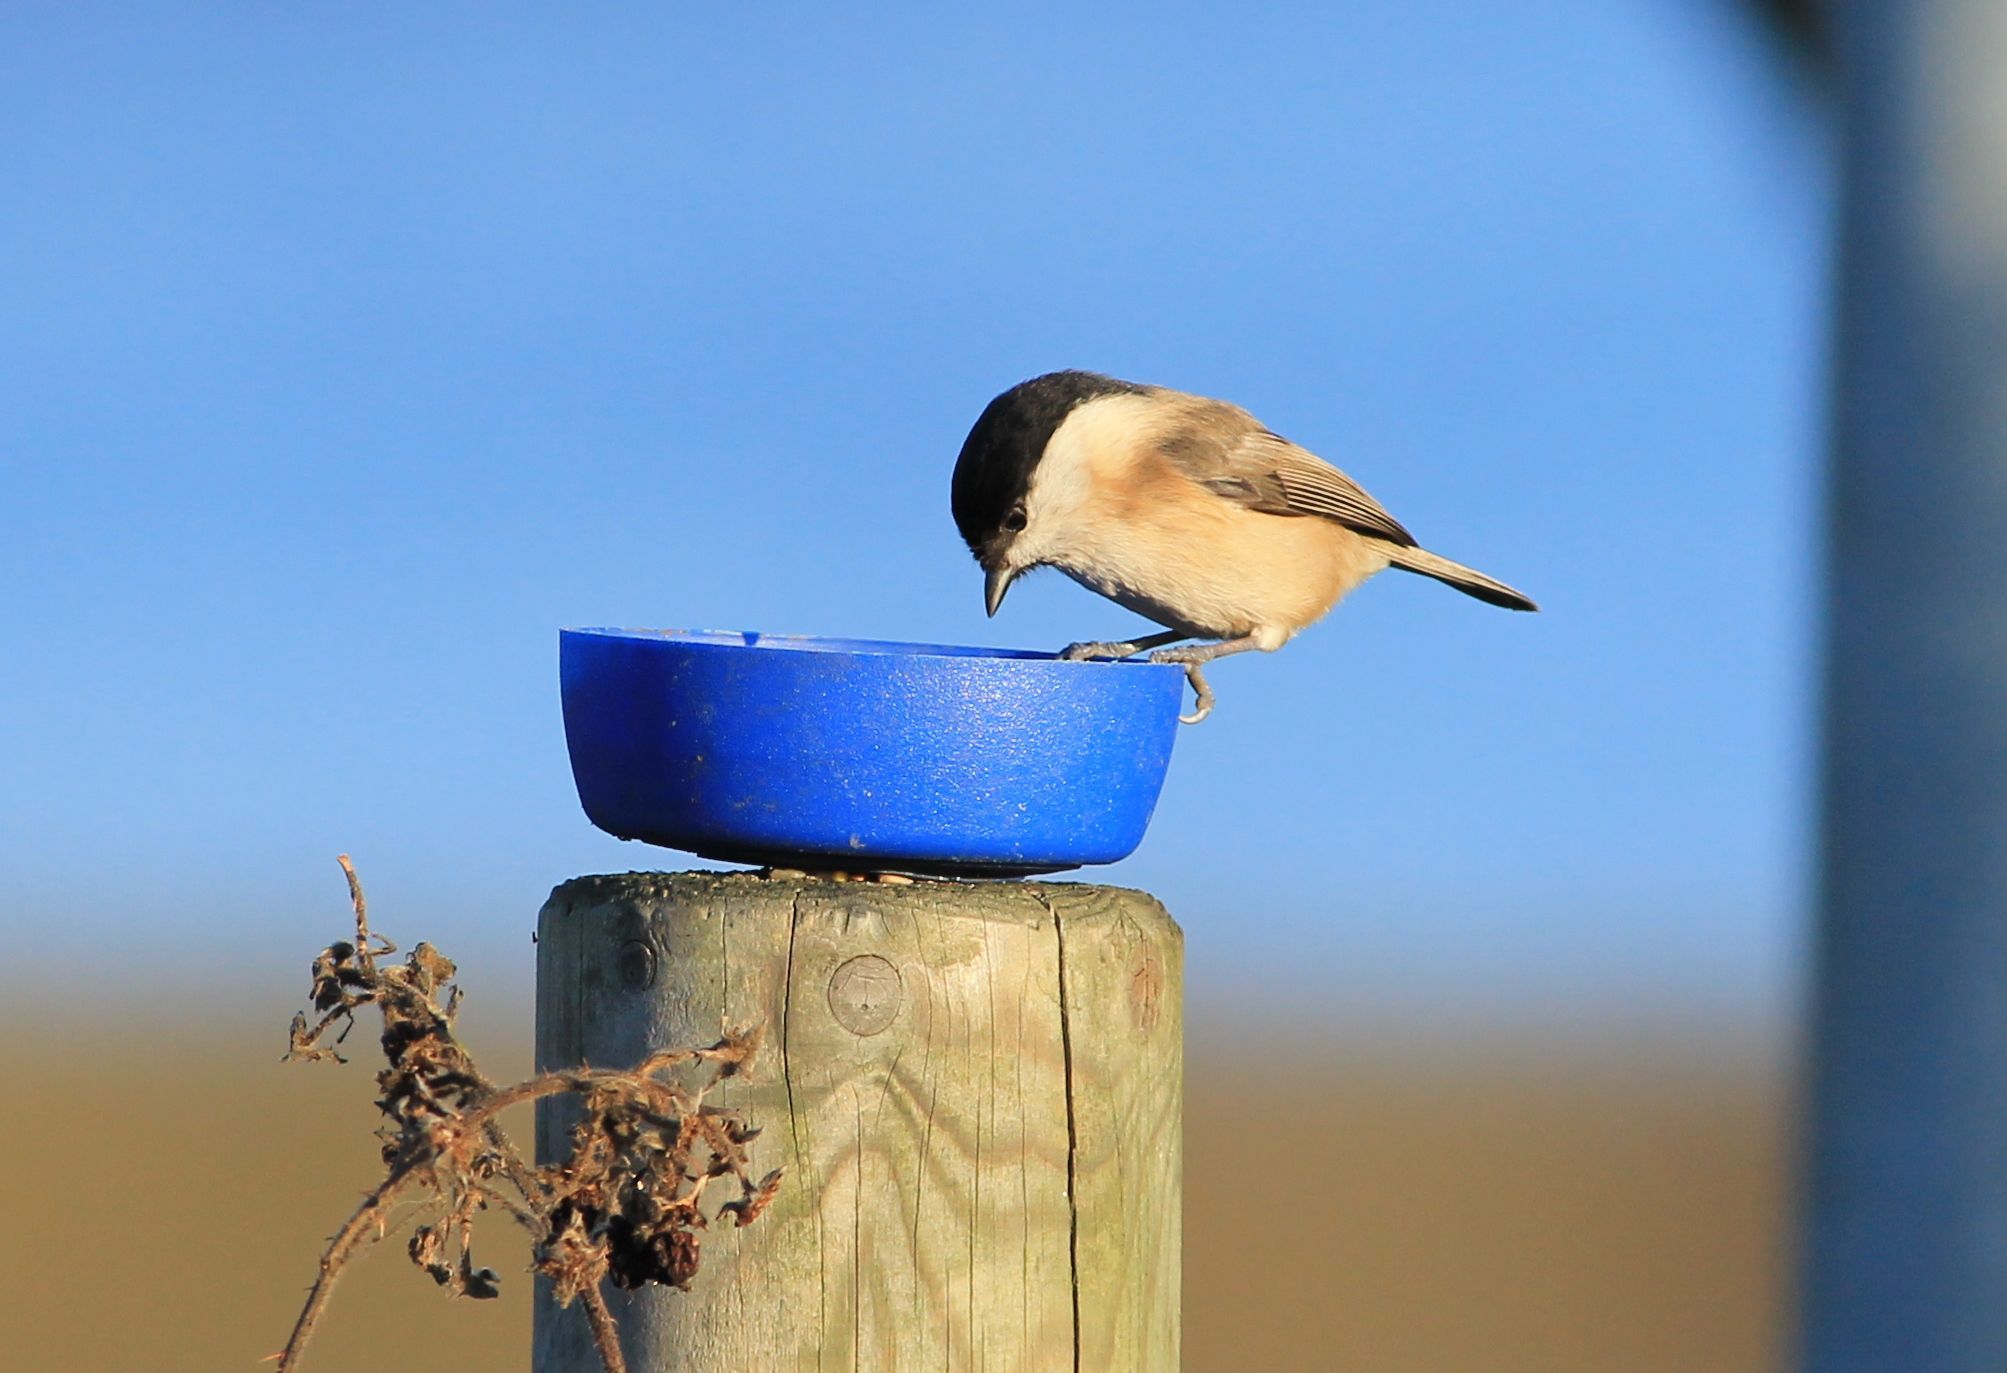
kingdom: Animalia
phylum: Chordata
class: Aves
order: Passeriformes
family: Paridae
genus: Poecile
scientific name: Poecile palustris
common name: Marsh tit
